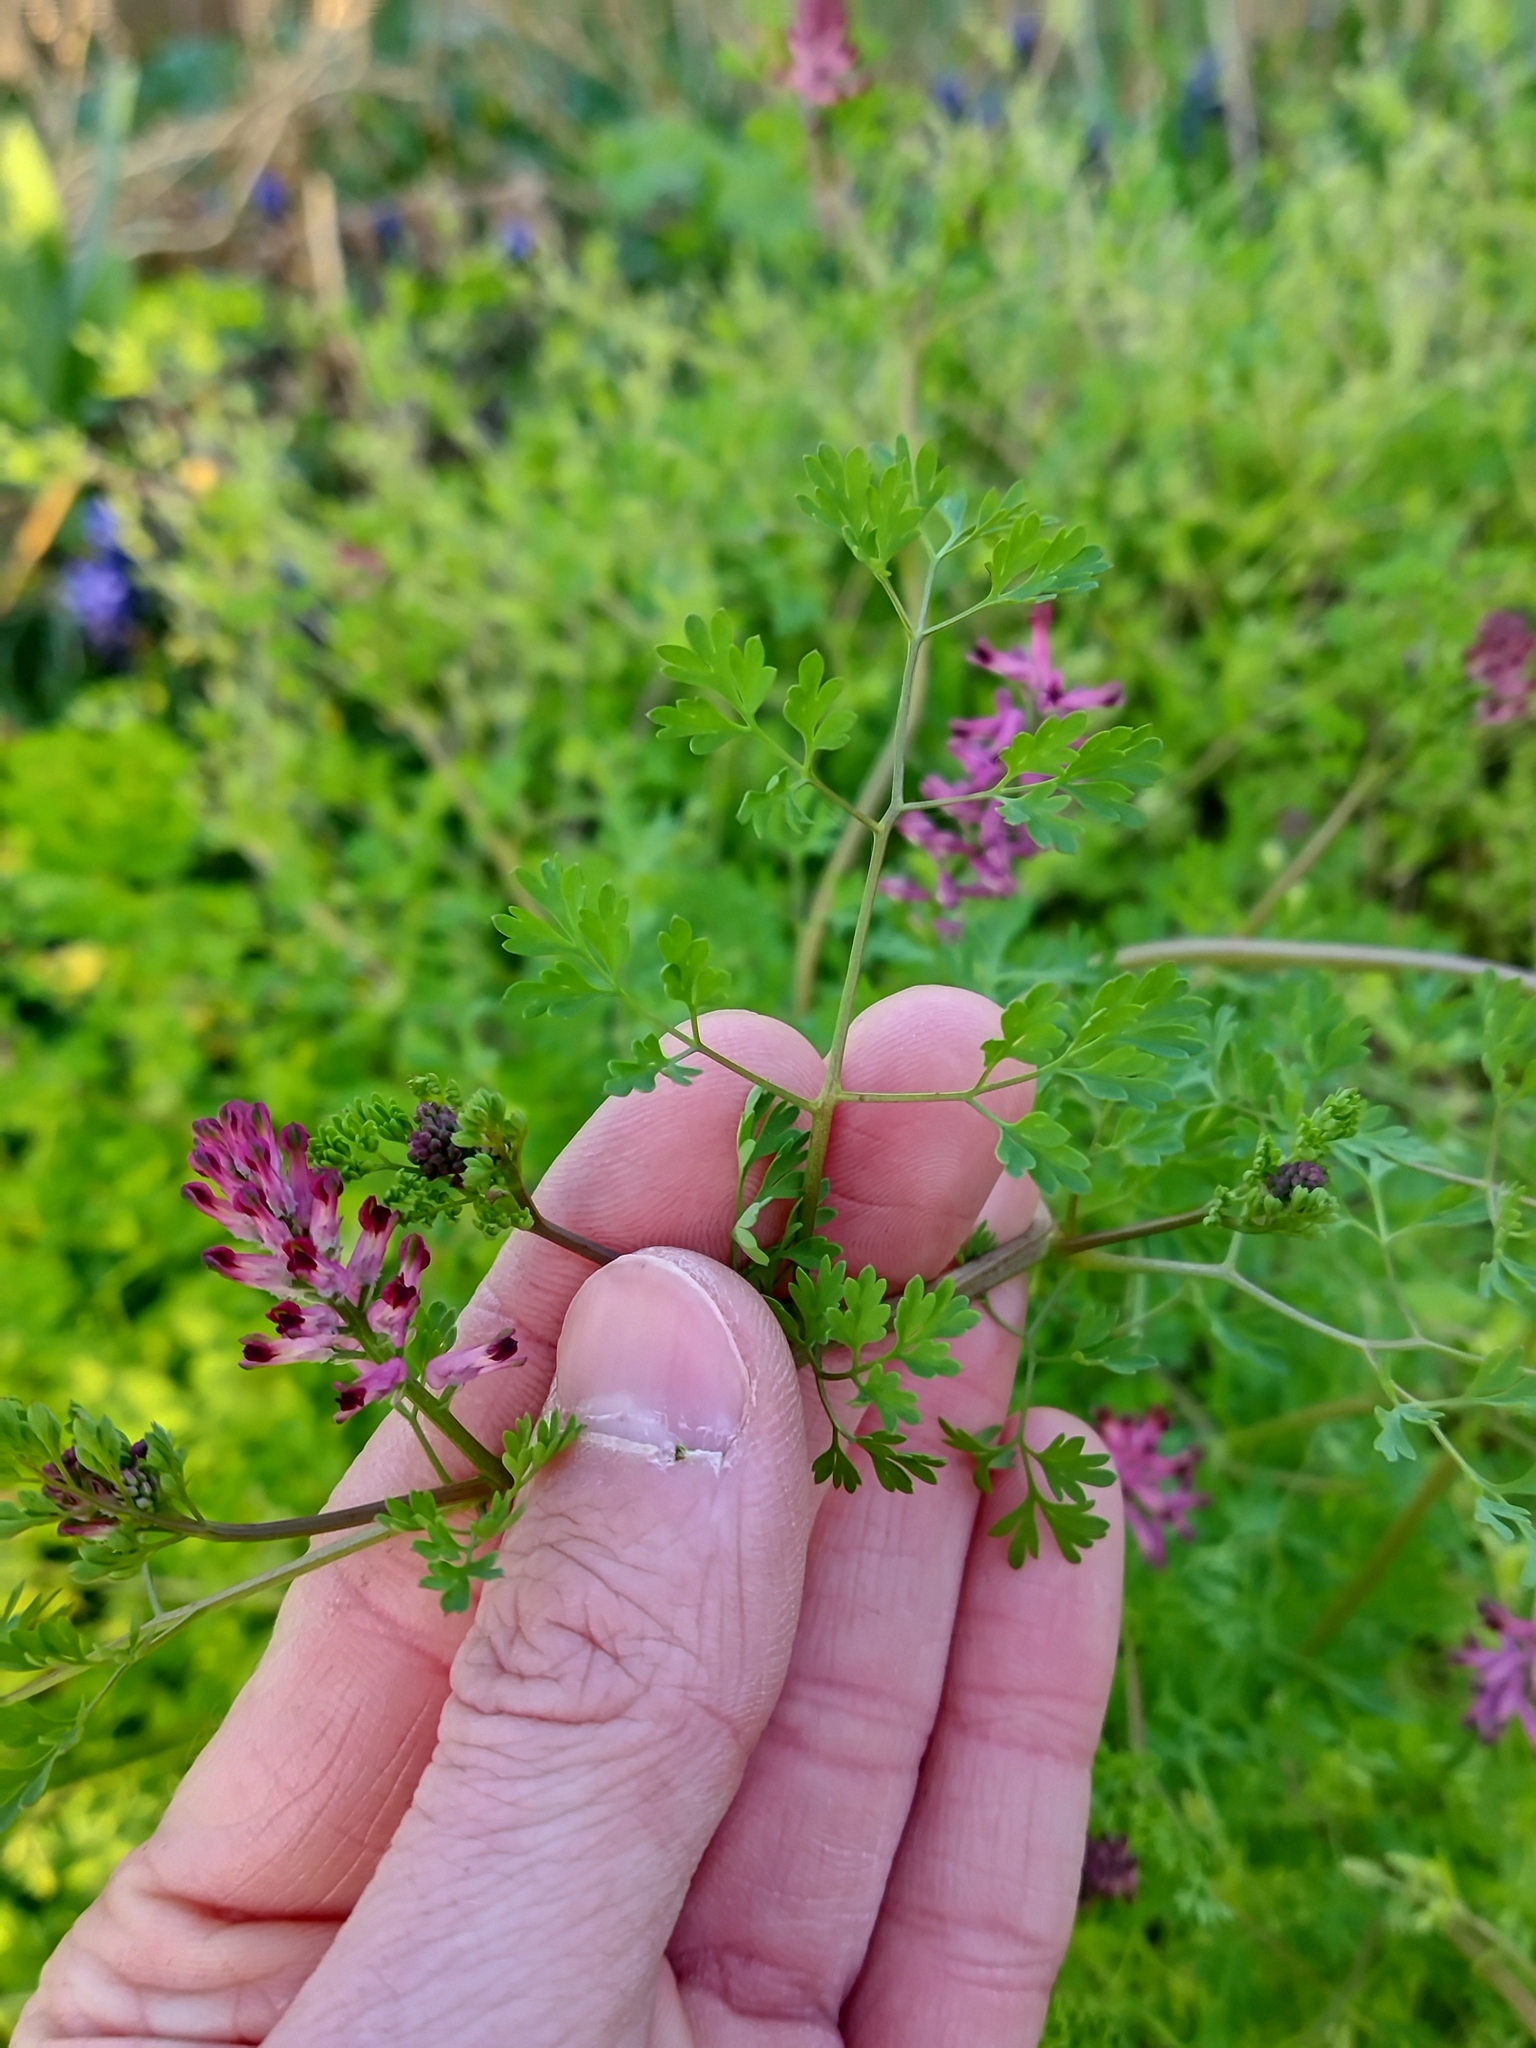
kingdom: Plantae
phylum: Tracheophyta
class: Magnoliopsida
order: Ranunculales
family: Papaveraceae
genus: Fumaria
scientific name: Fumaria officinalis
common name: Common fumitory
